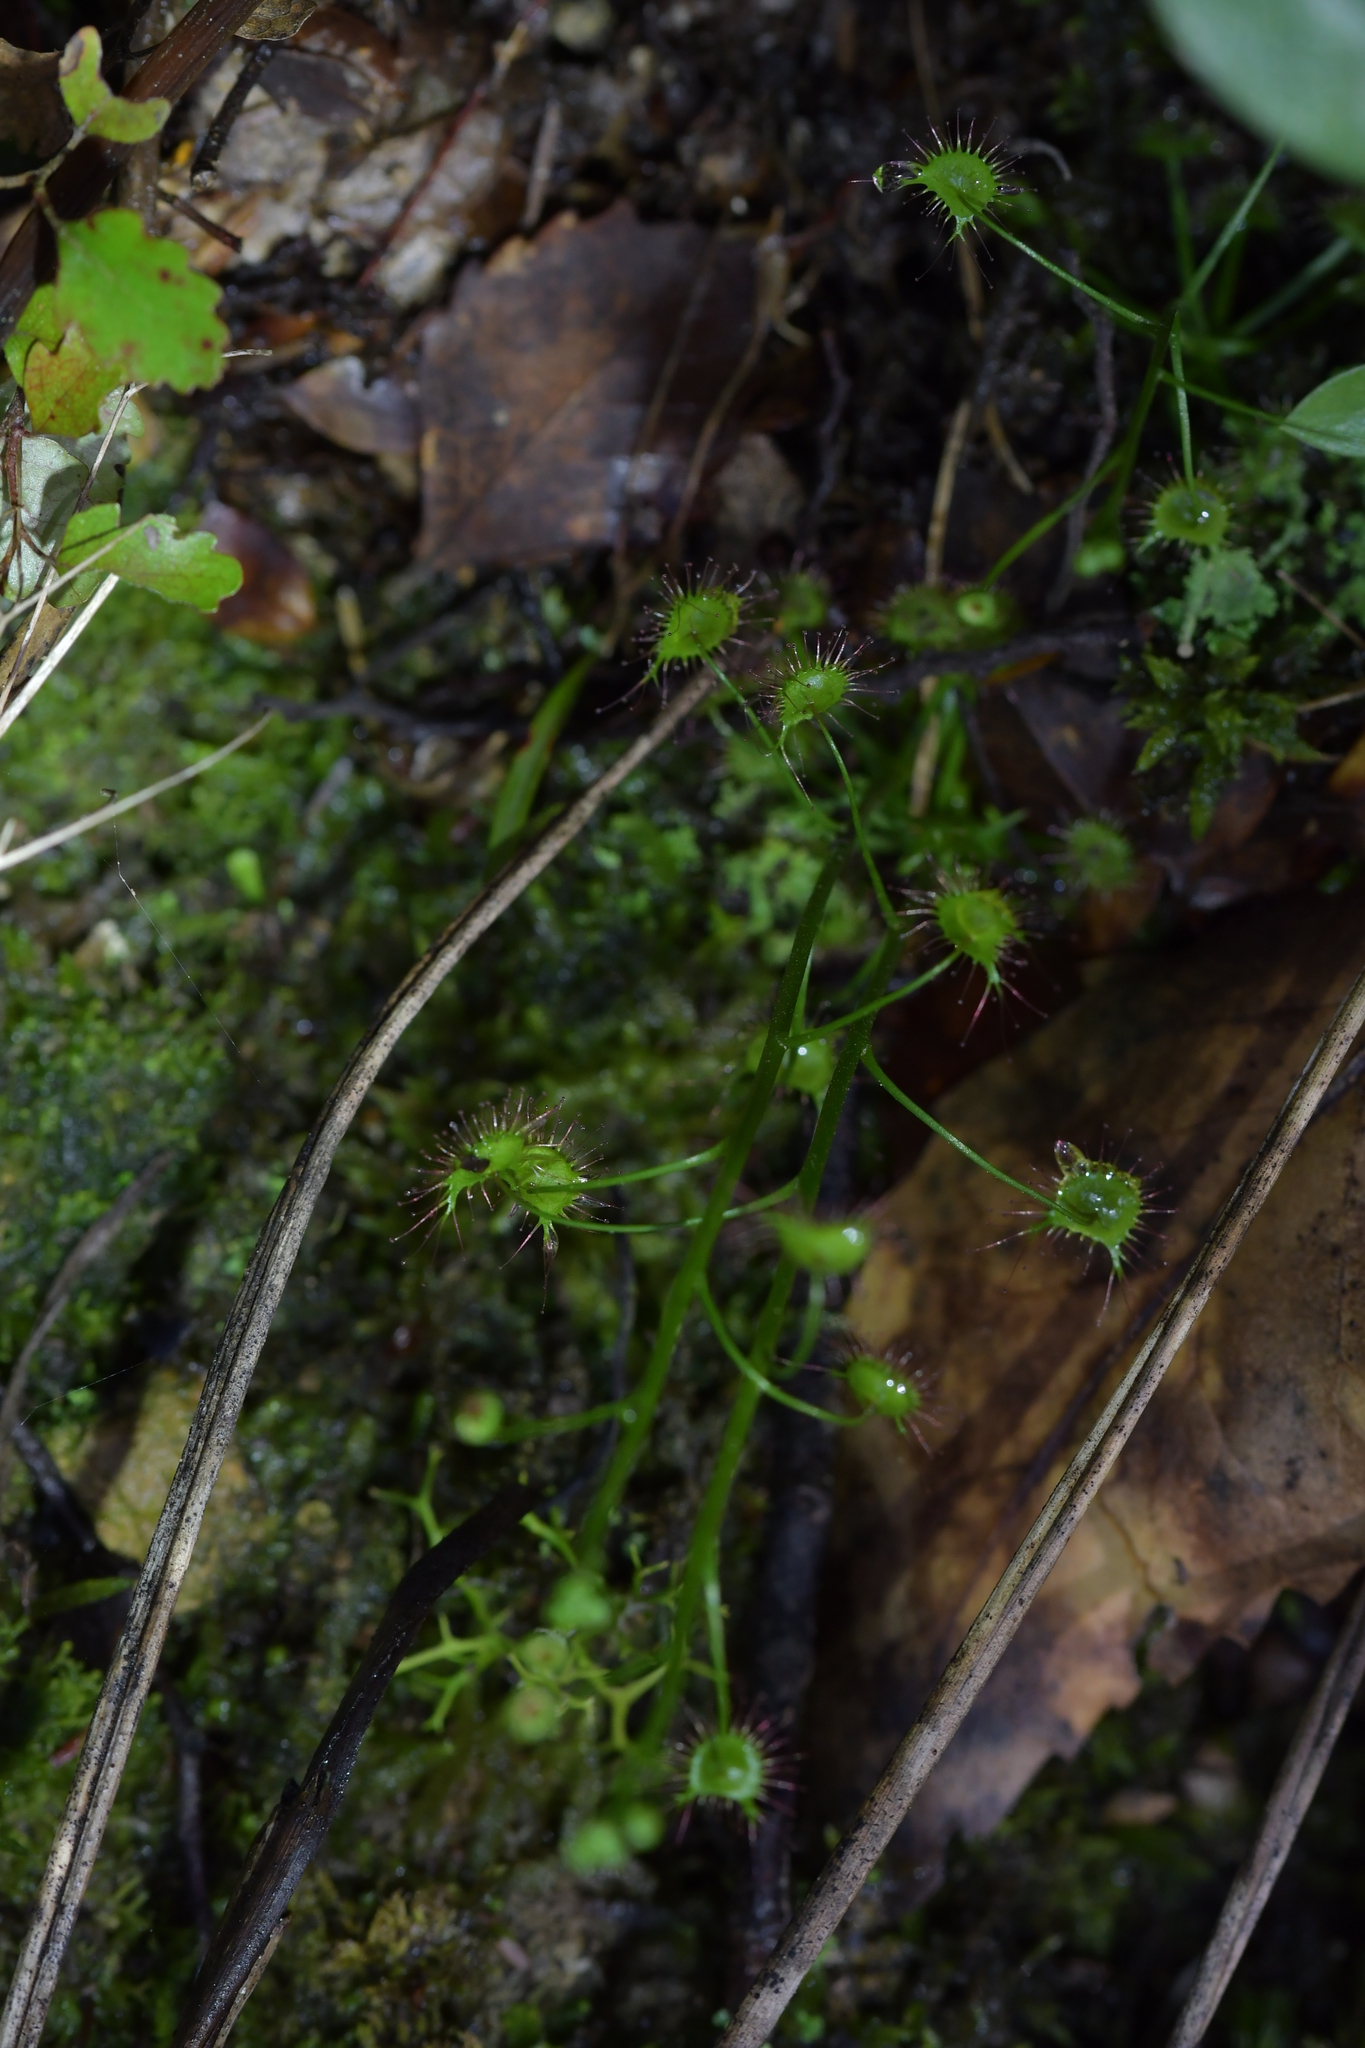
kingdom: Plantae
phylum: Tracheophyta
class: Magnoliopsida
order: Caryophyllales
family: Droseraceae
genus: Drosera
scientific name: Drosera peltata
